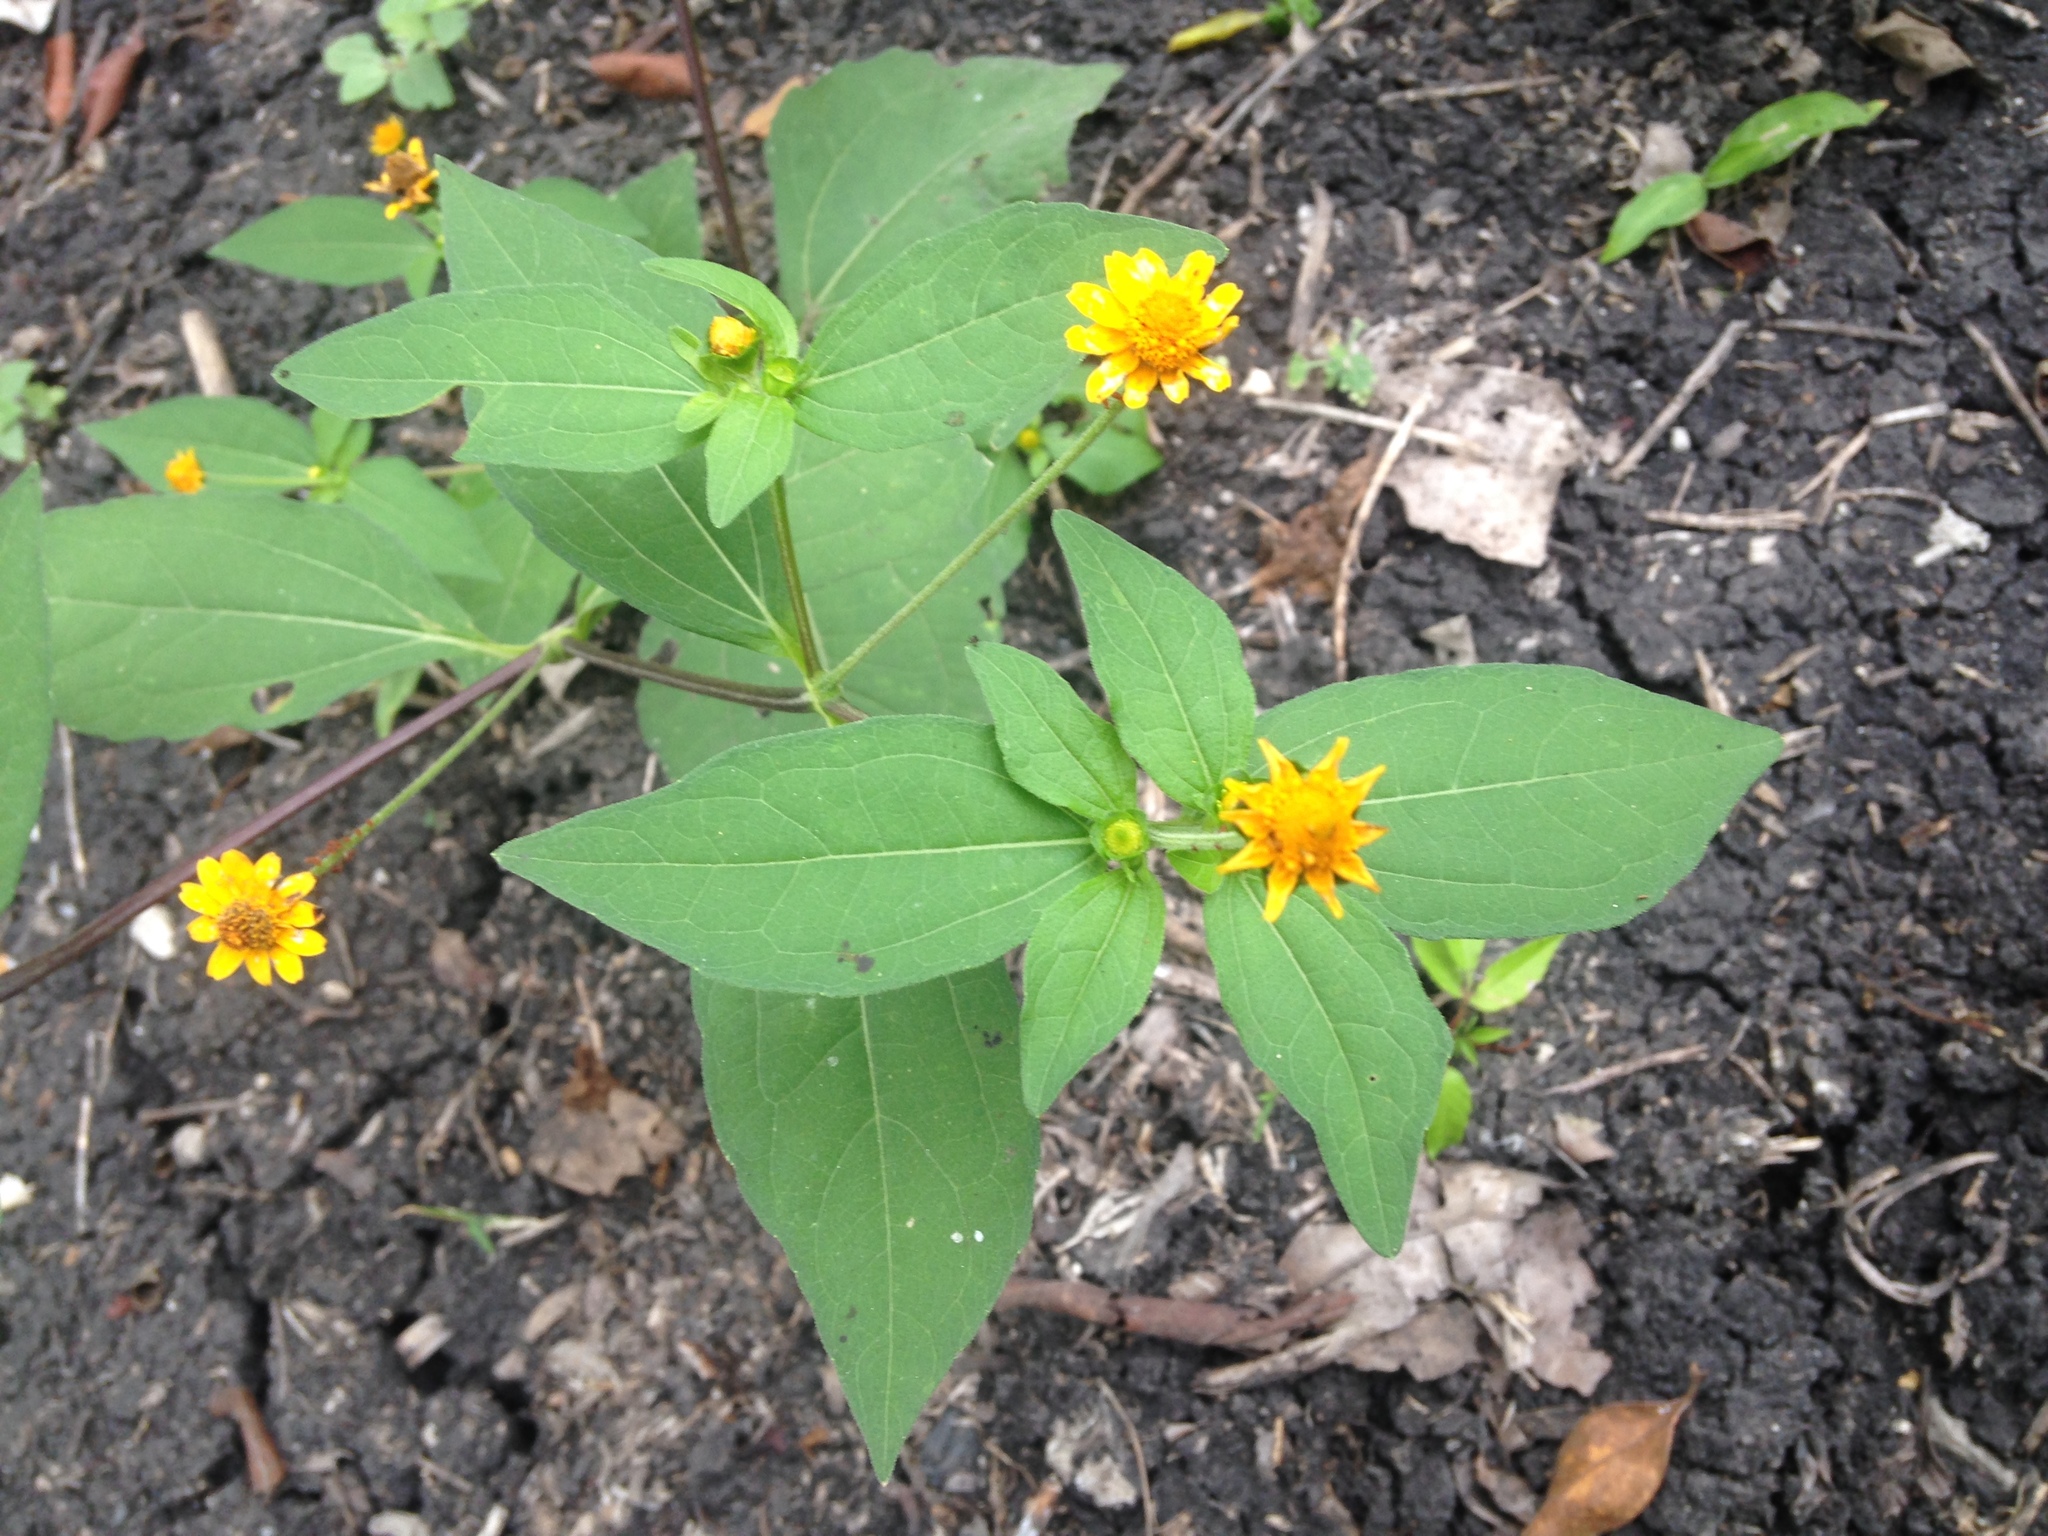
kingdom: Plantae
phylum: Tracheophyta
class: Magnoliopsida
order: Asterales
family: Asteraceae
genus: Melampodium
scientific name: Melampodium divaricatum
